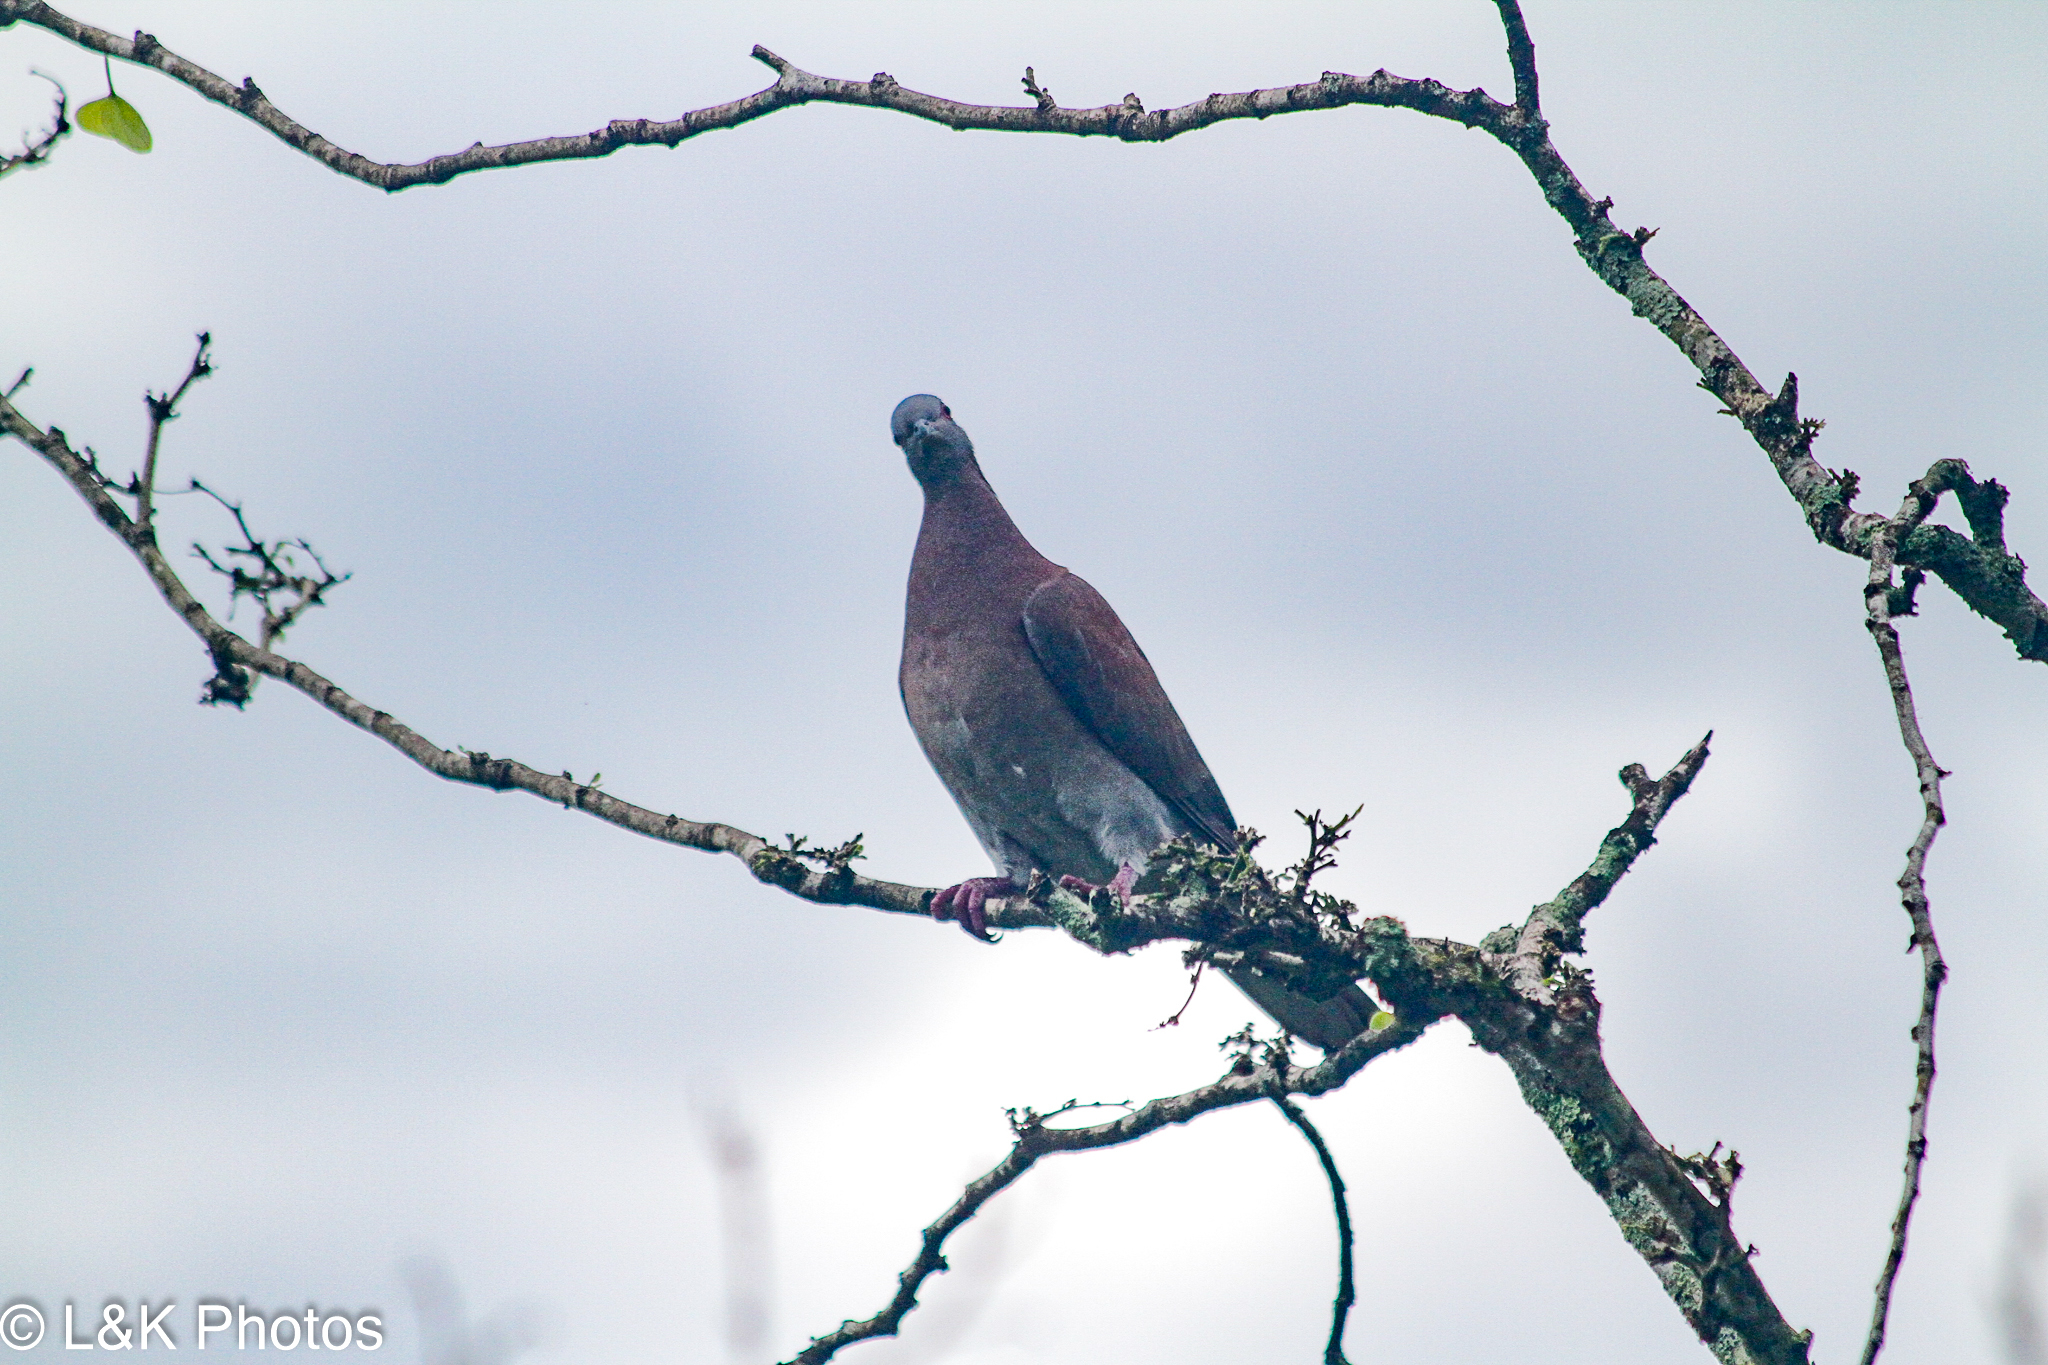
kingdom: Animalia
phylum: Chordata
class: Aves
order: Columbiformes
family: Columbidae
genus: Patagioenas
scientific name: Patagioenas cayennensis
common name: Pale-vented pigeon
